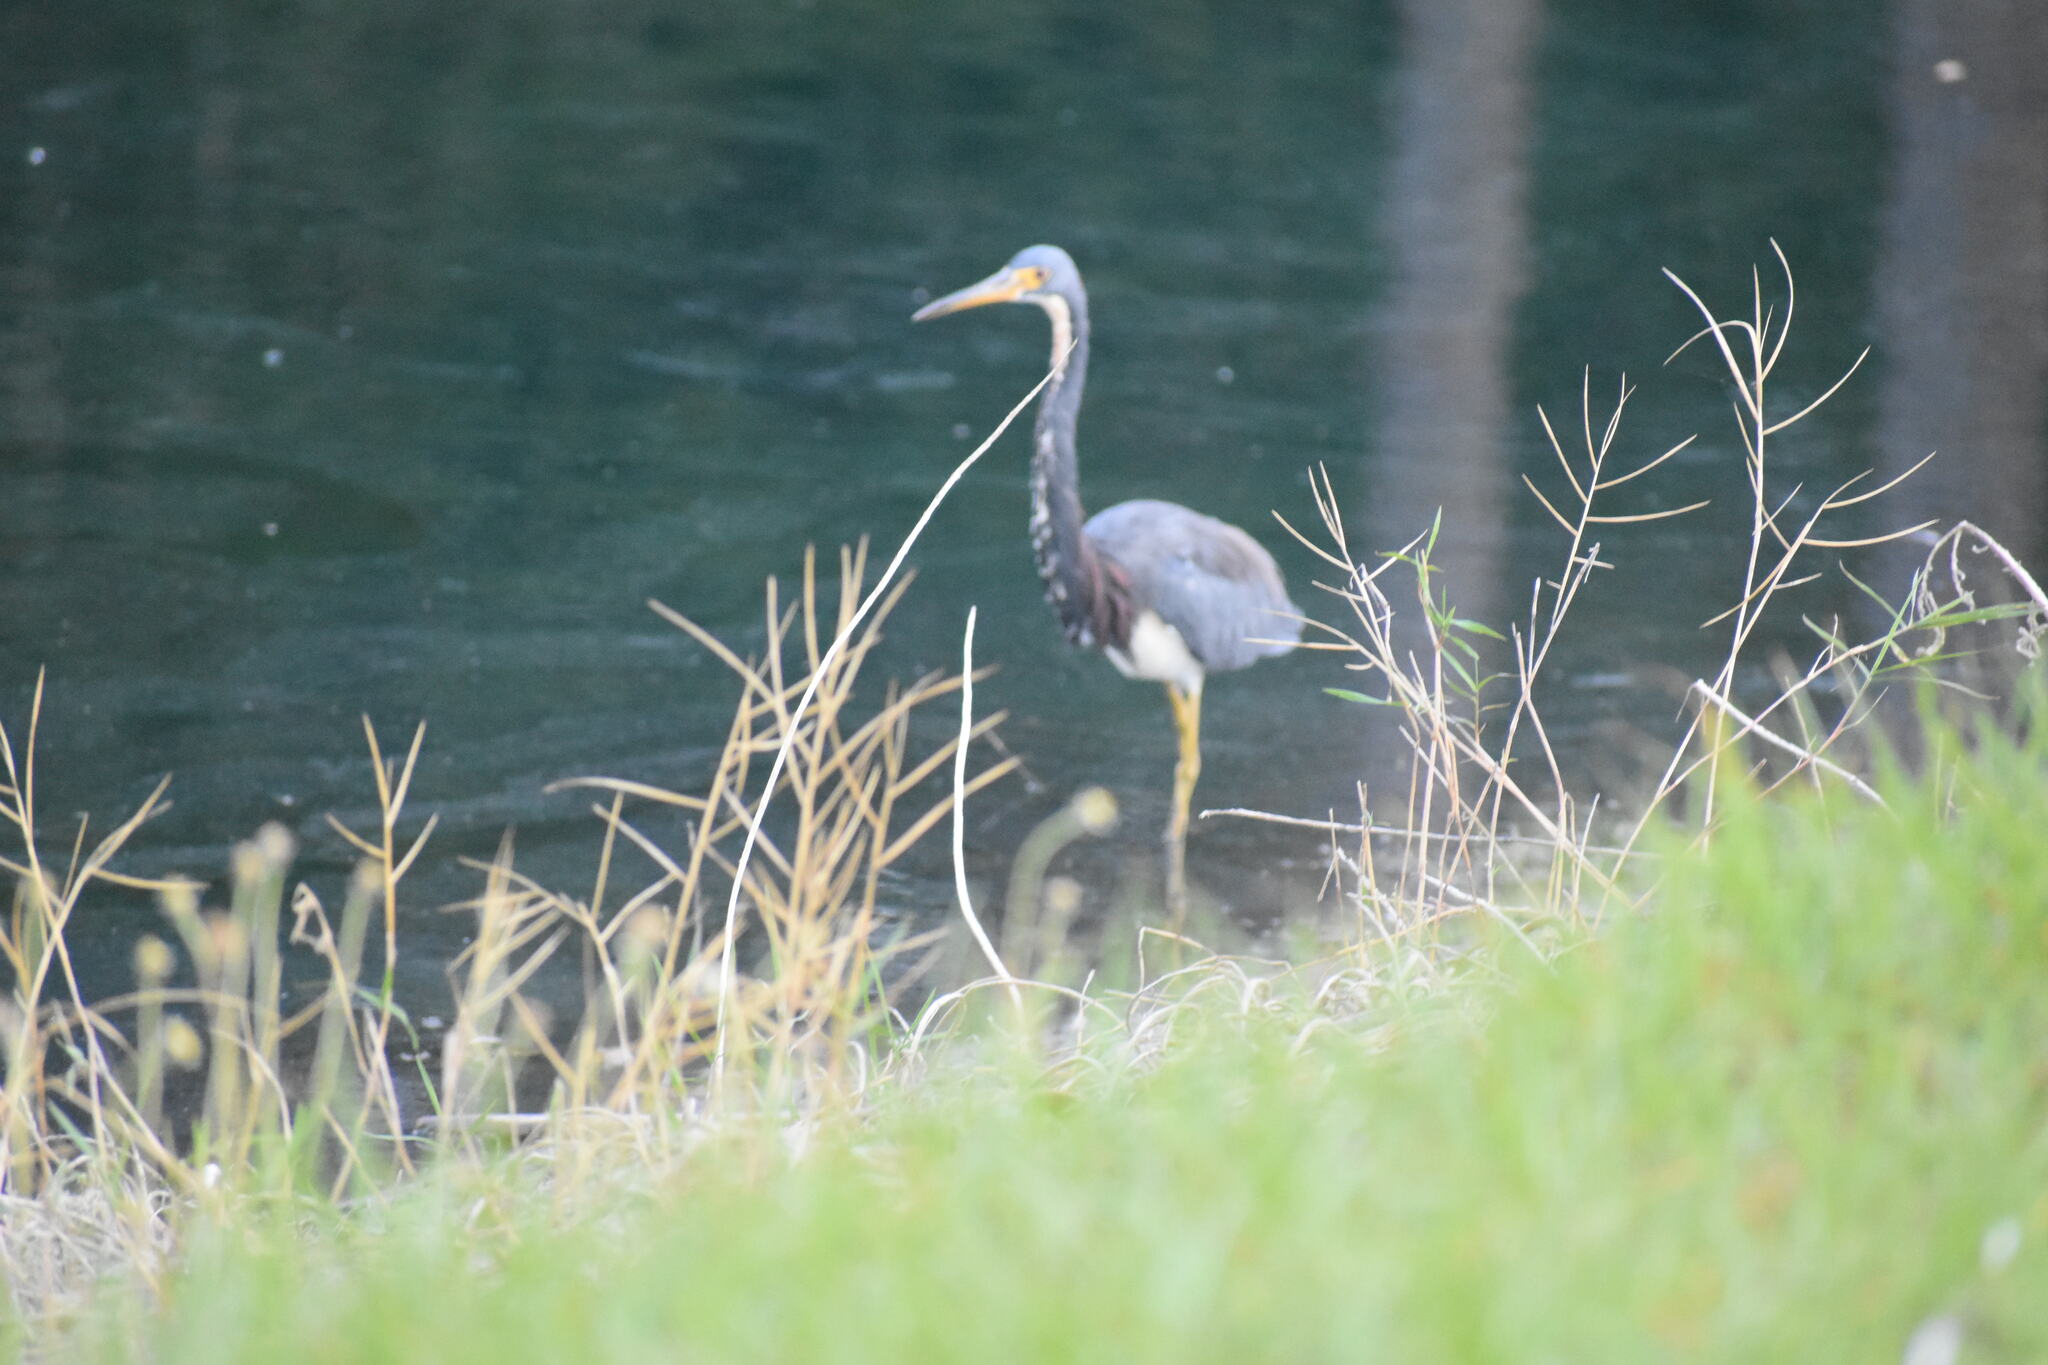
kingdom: Animalia
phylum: Chordata
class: Aves
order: Pelecaniformes
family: Ardeidae
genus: Egretta
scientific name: Egretta tricolor
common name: Tricolored heron
